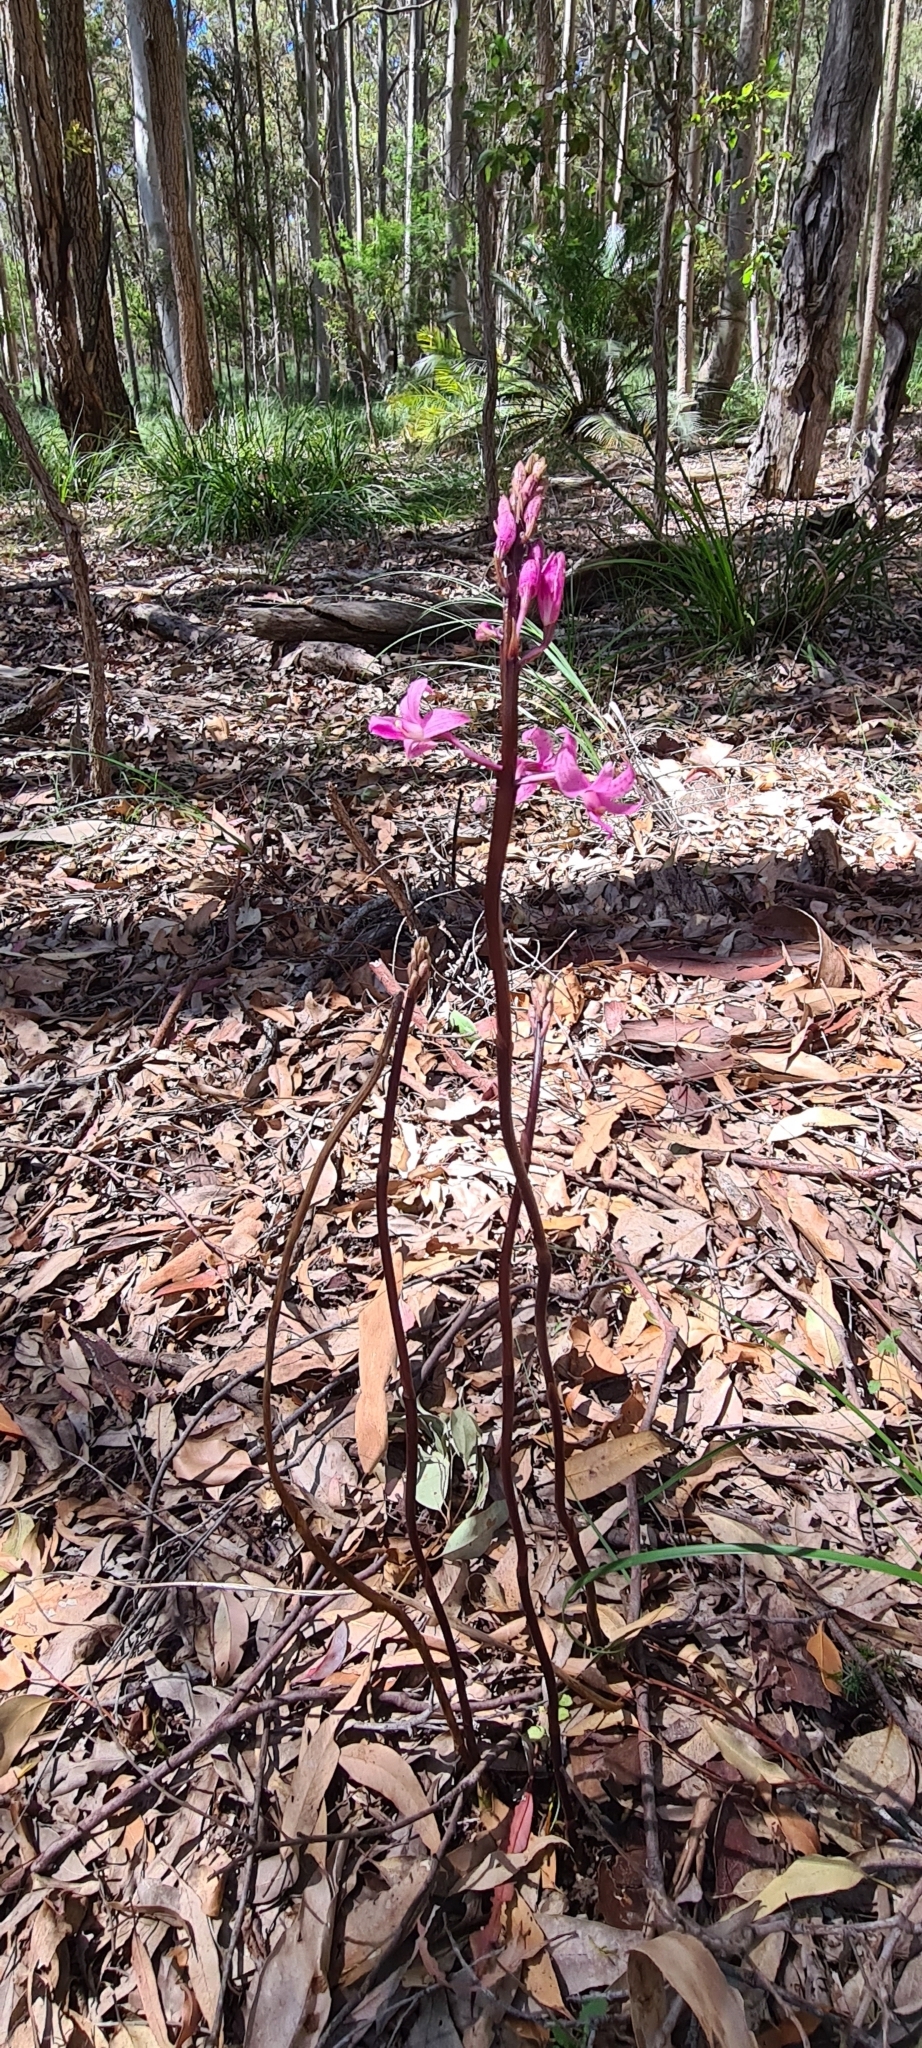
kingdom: Plantae
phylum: Tracheophyta
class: Liliopsida
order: Asparagales
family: Orchidaceae
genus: Dipodium
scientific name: Dipodium roseum
